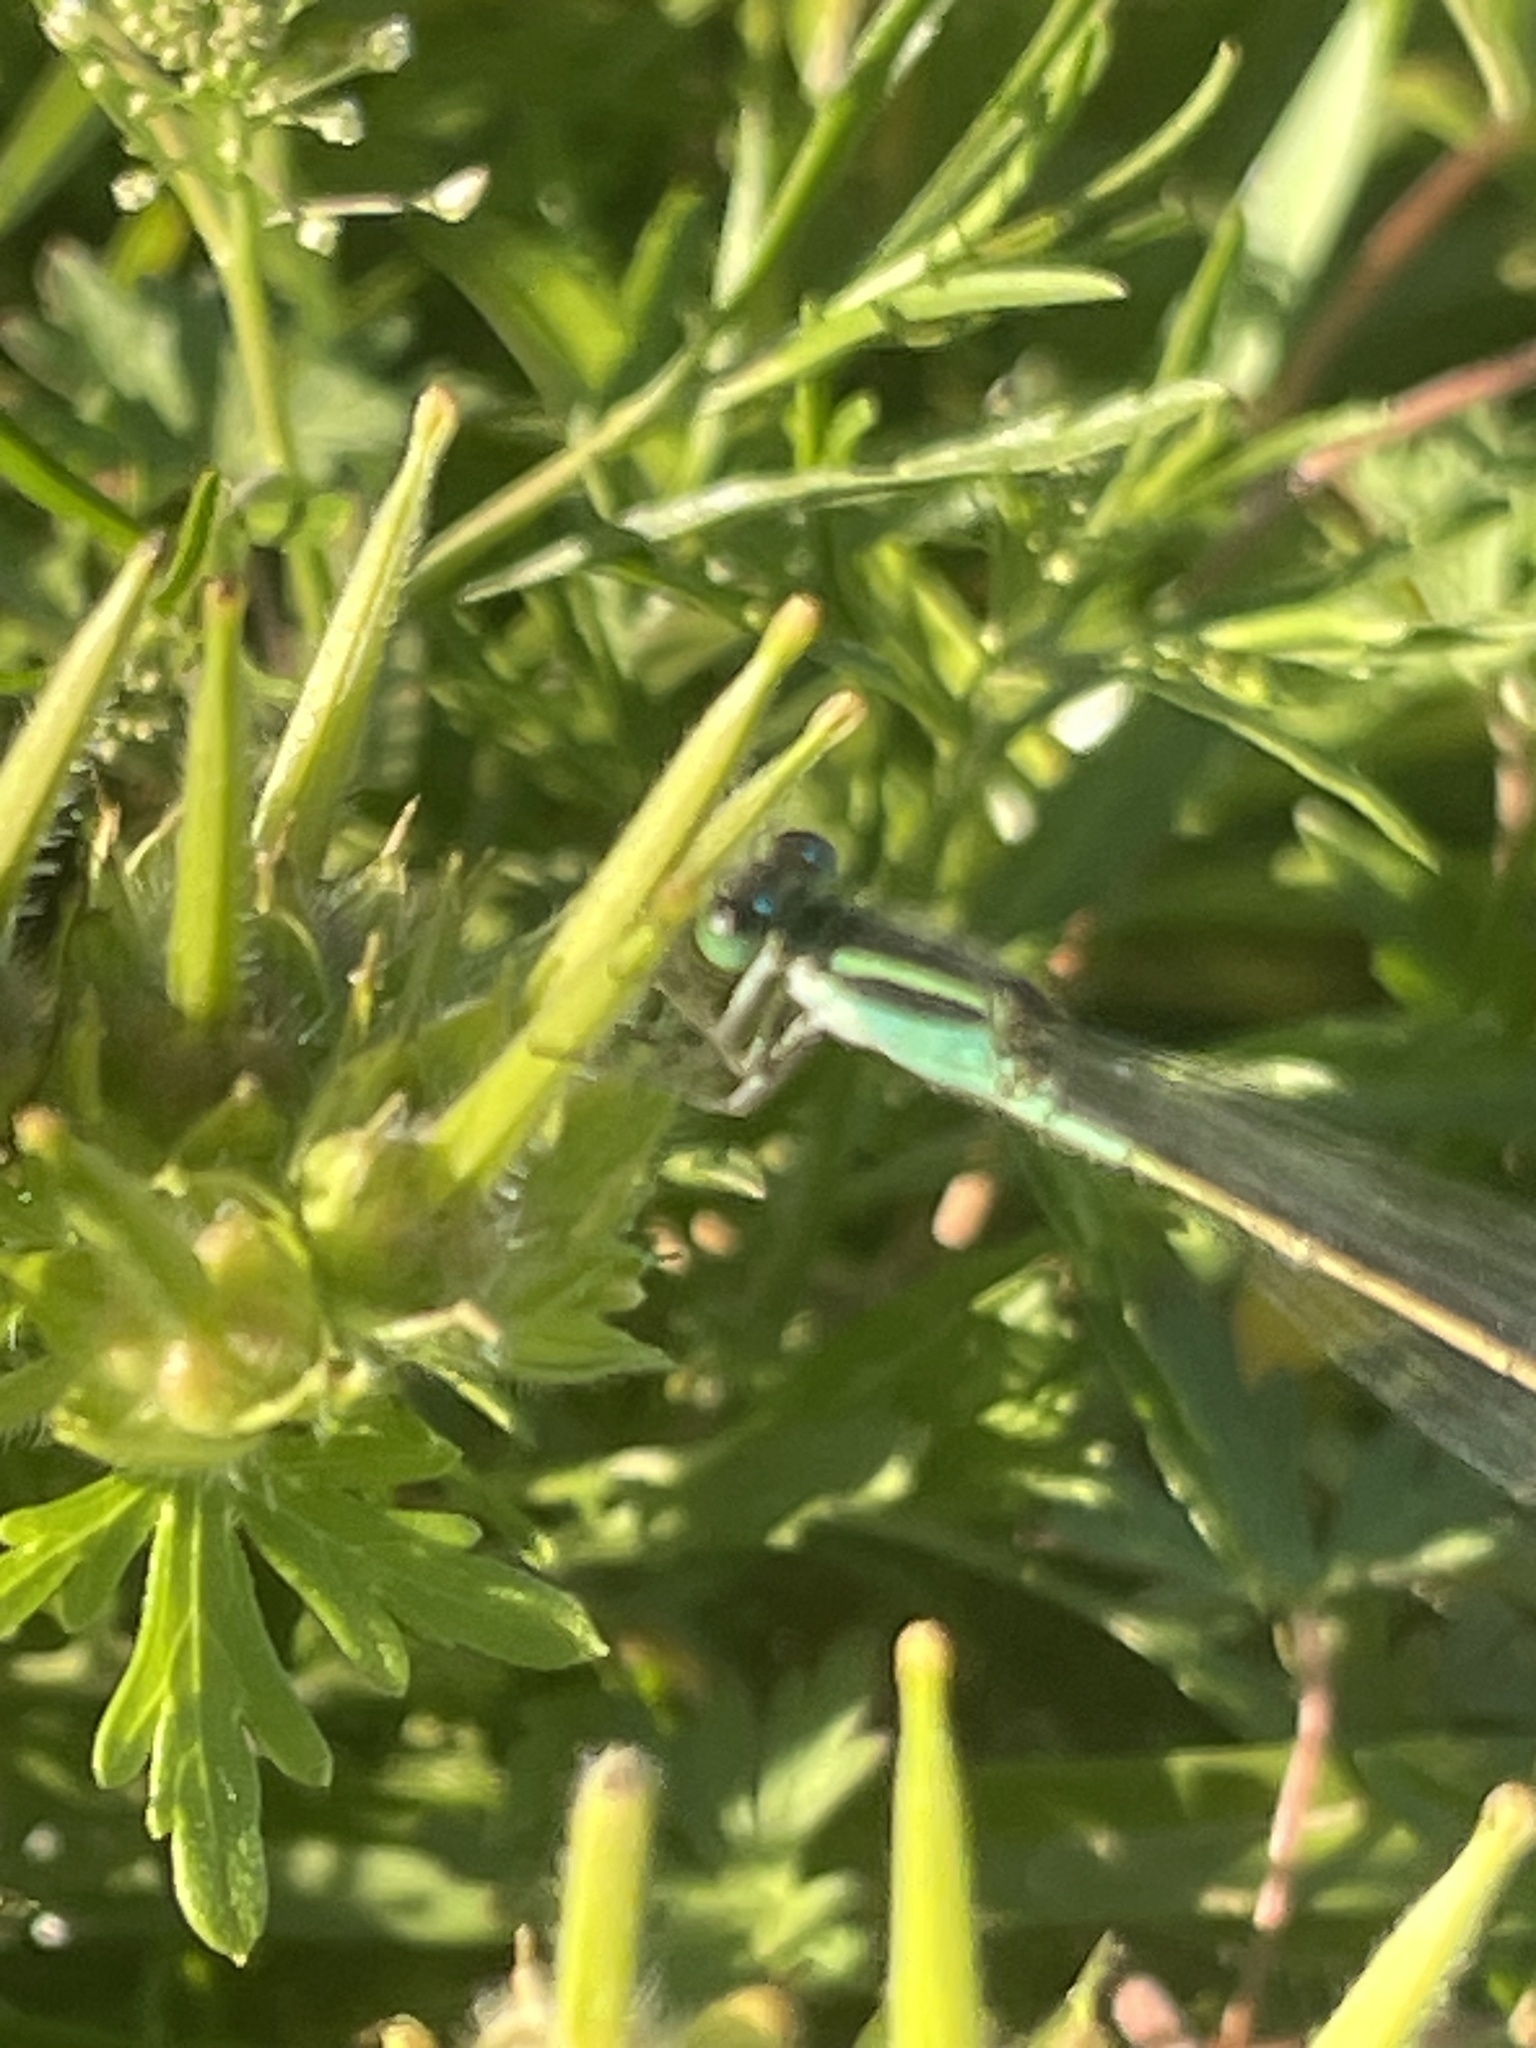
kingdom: Animalia
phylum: Arthropoda
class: Insecta
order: Odonata
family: Coenagrionidae
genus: Ischnura
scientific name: Ischnura ramburii
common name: Rambur's forktail
